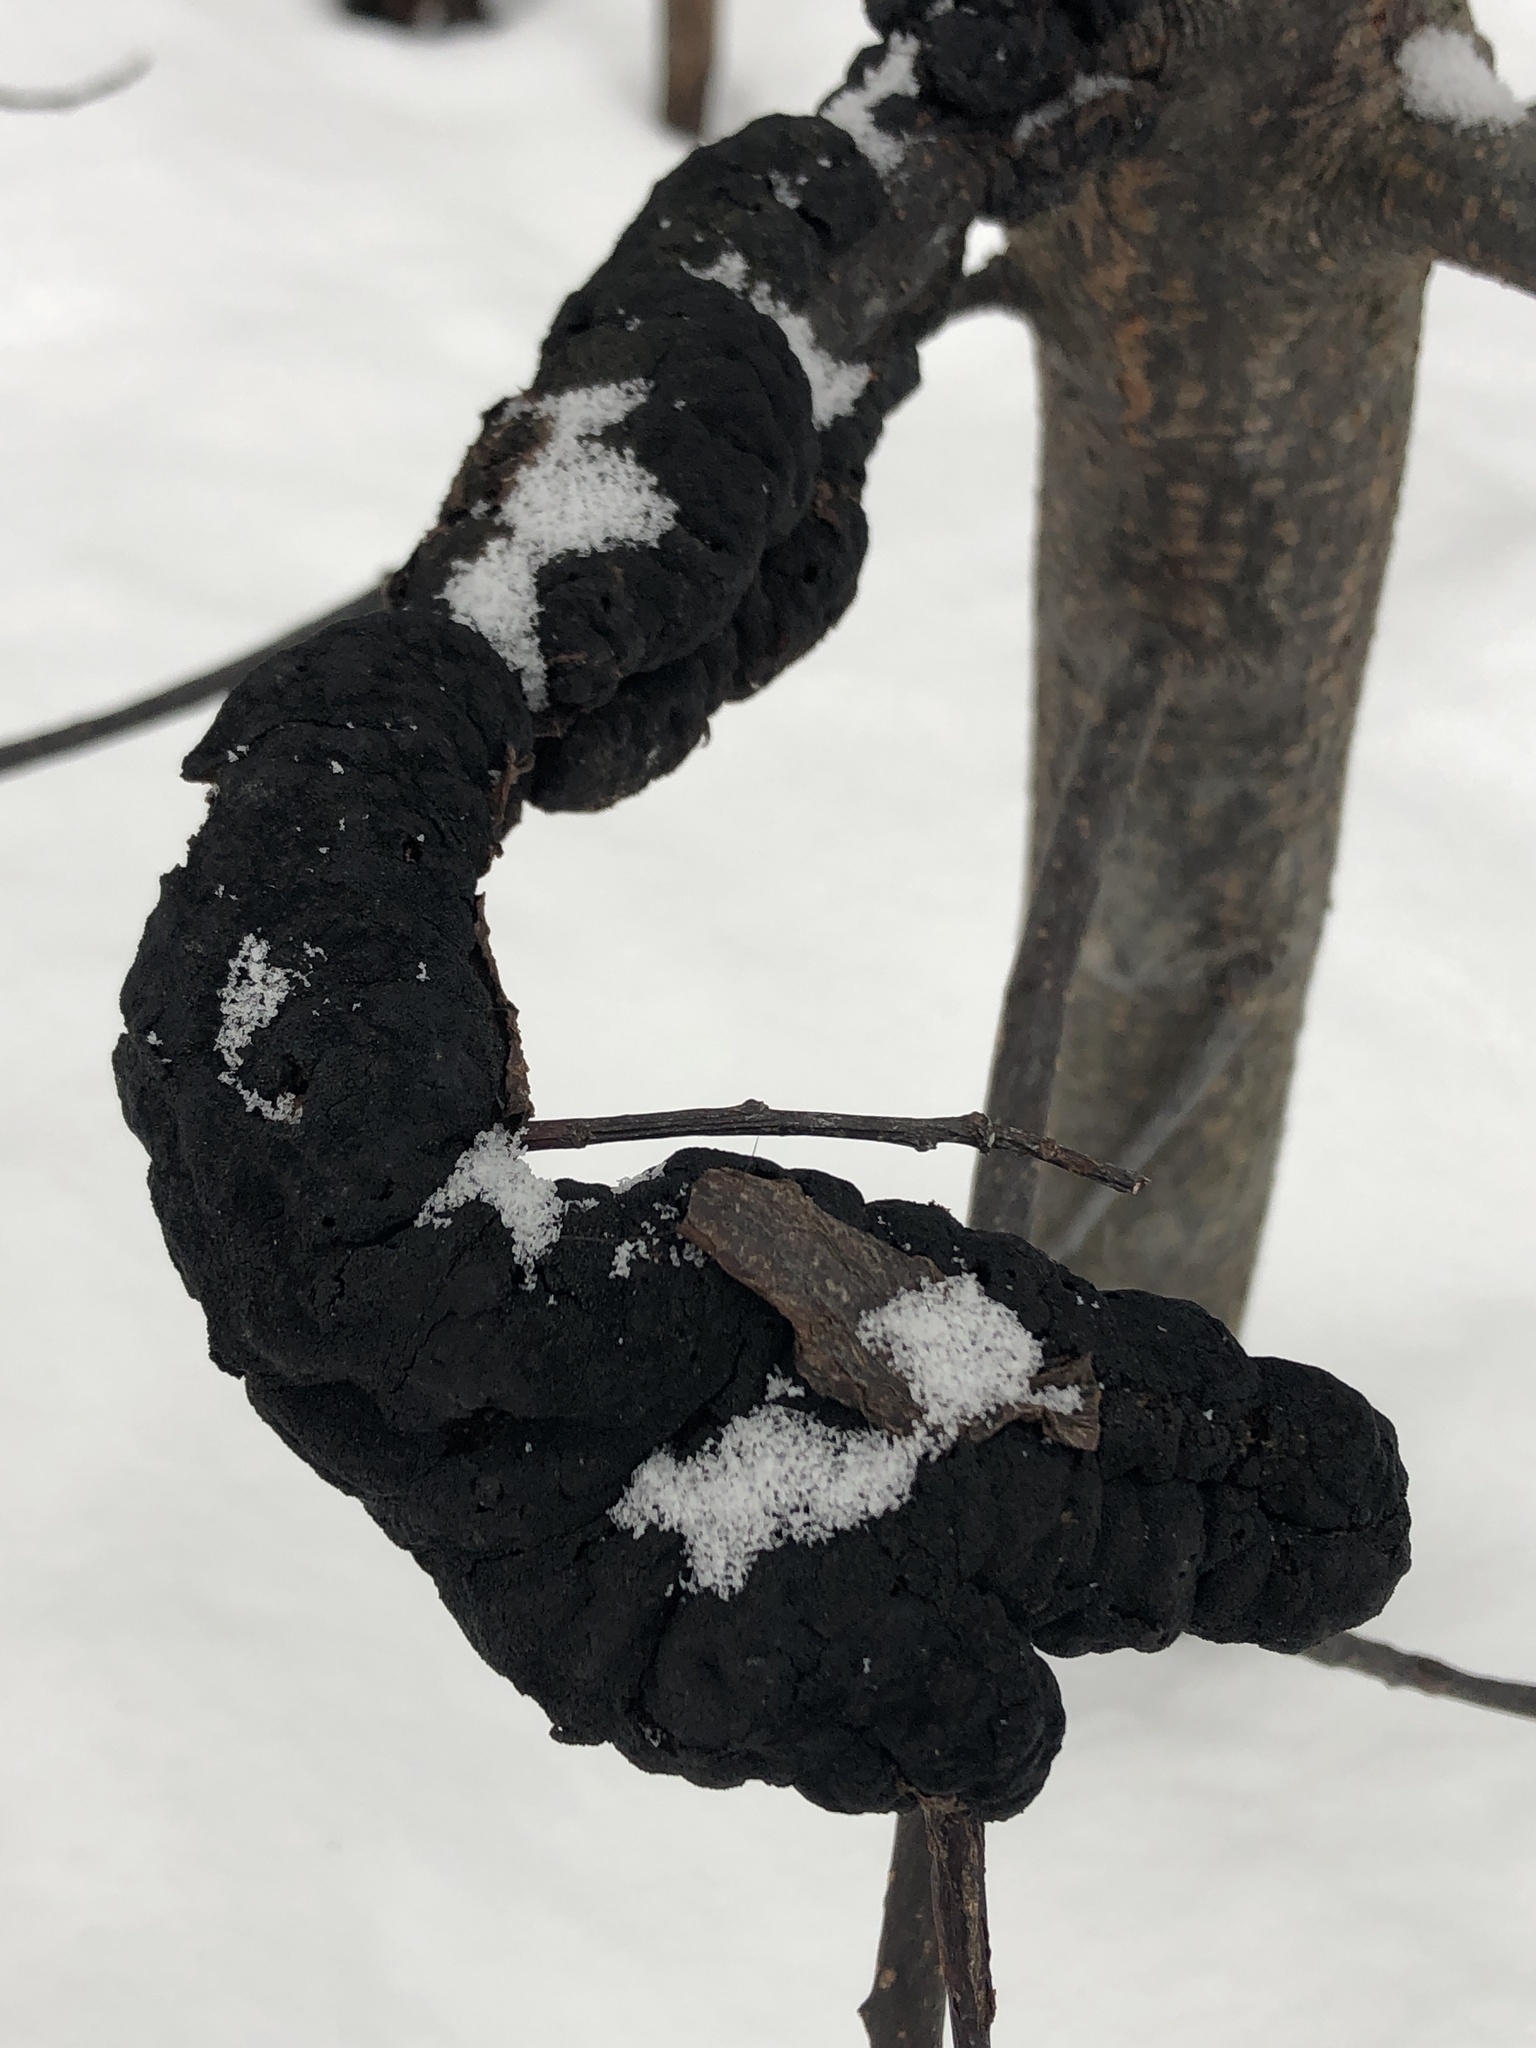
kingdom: Fungi
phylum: Ascomycota
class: Dothideomycetes
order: Venturiales
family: Venturiaceae
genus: Apiosporina
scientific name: Apiosporina morbosa
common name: Black knot
